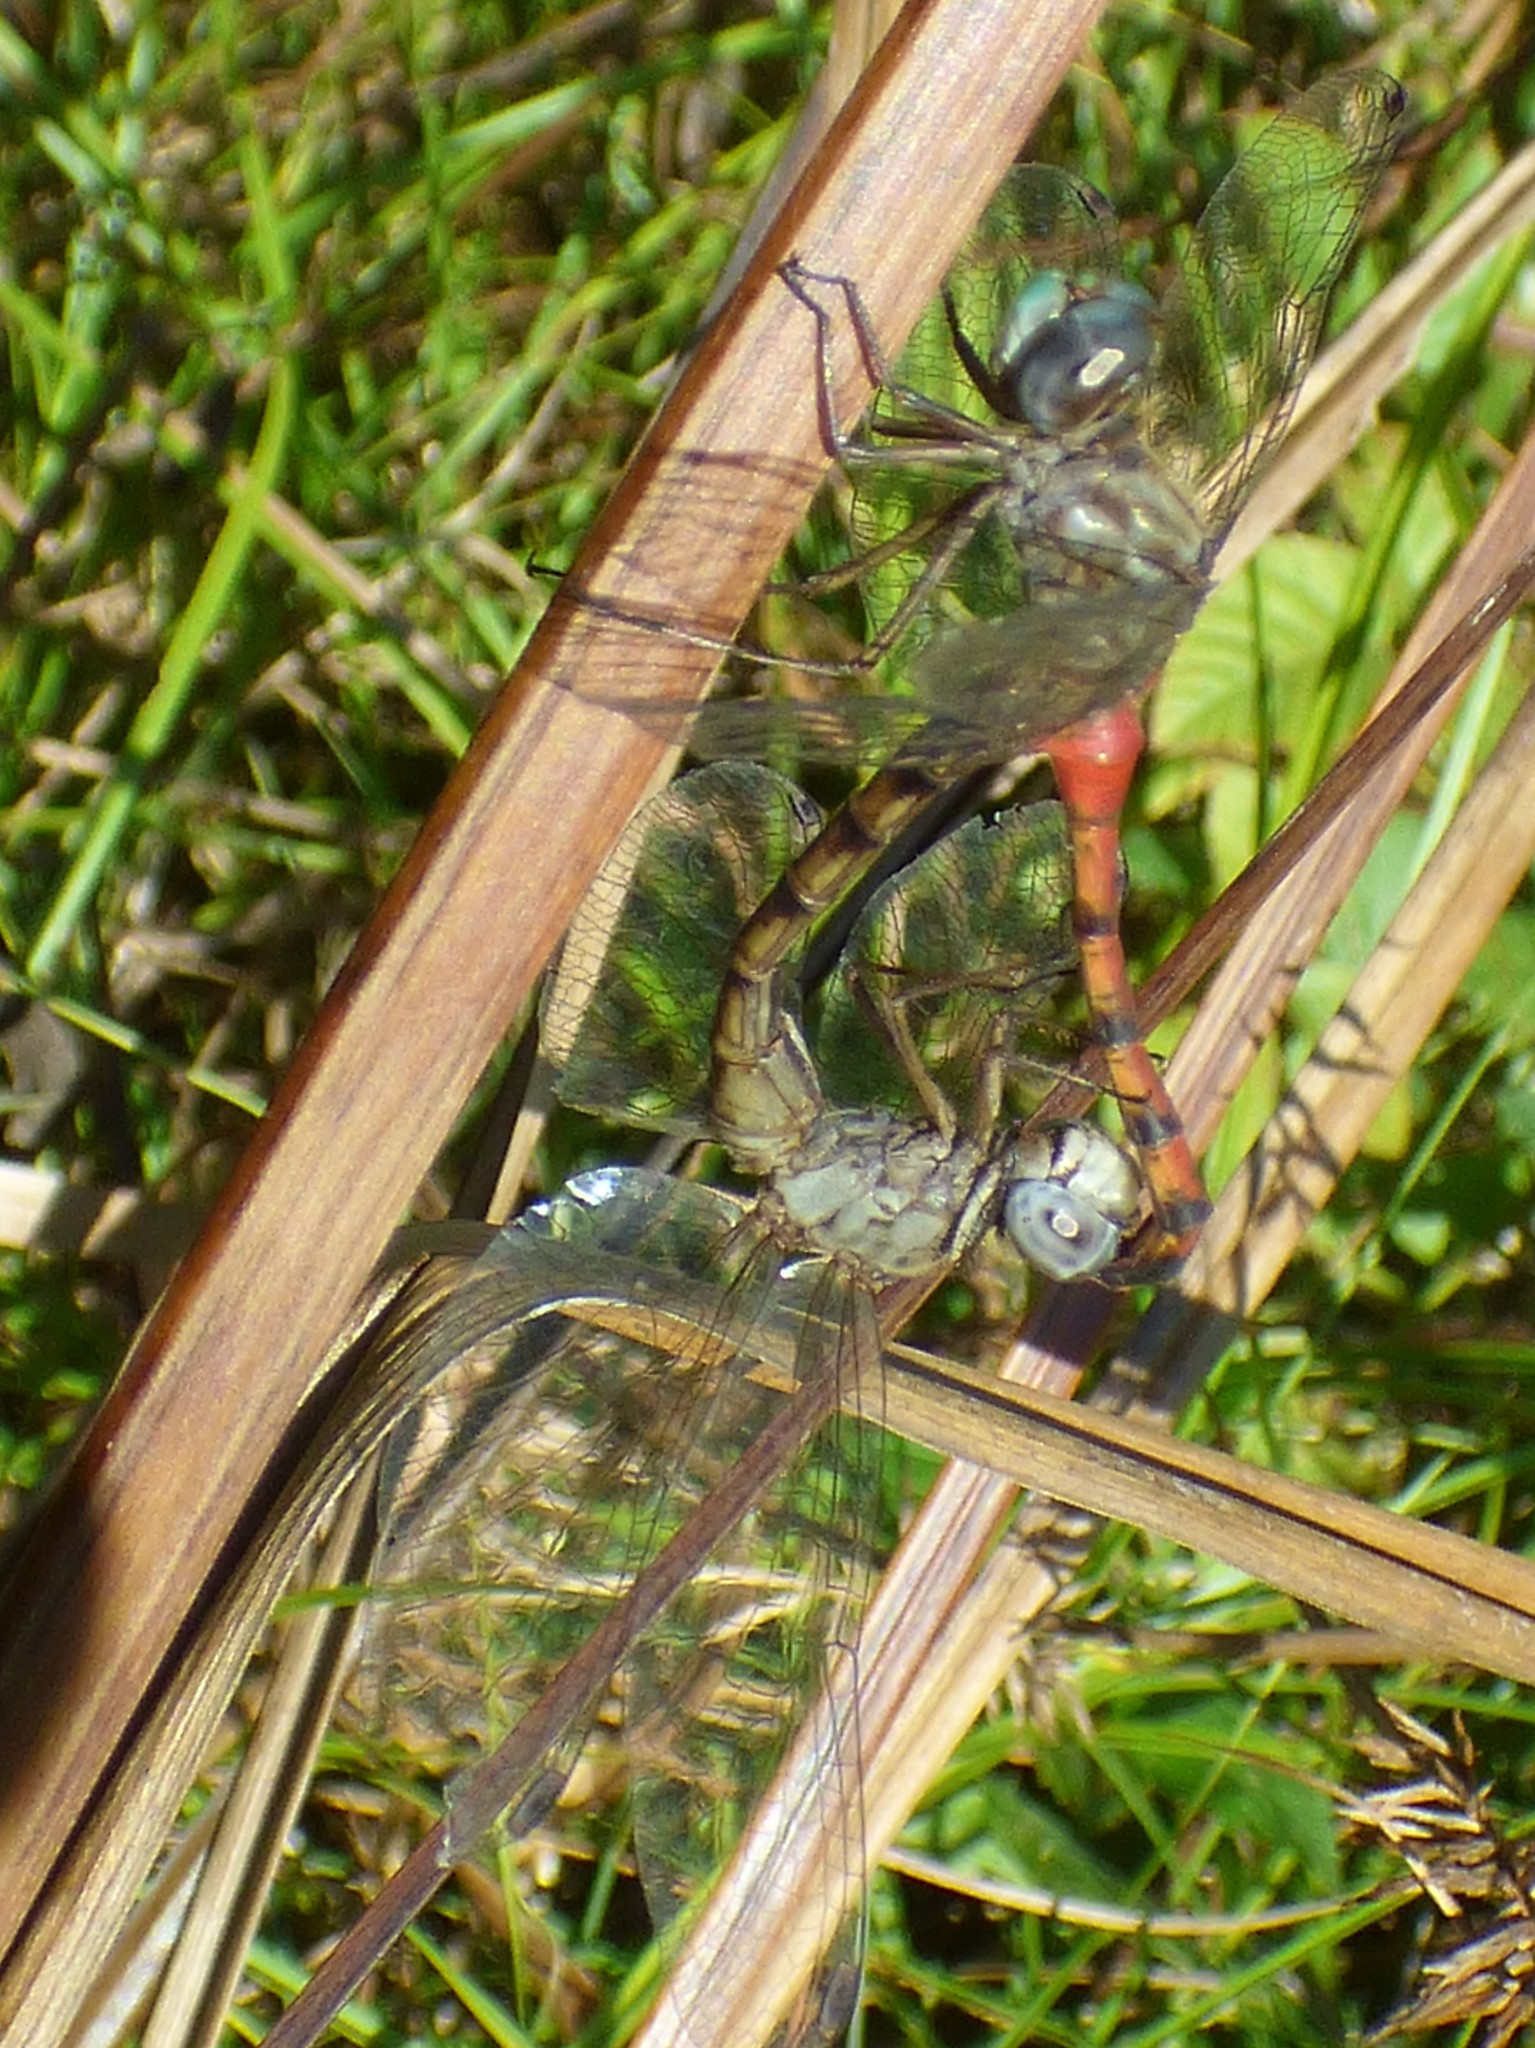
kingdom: Animalia
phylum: Arthropoda
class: Insecta
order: Odonata
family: Libellulidae
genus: Sympetrum
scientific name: Sympetrum ambiguum
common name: Blue-faced meadowhawk
